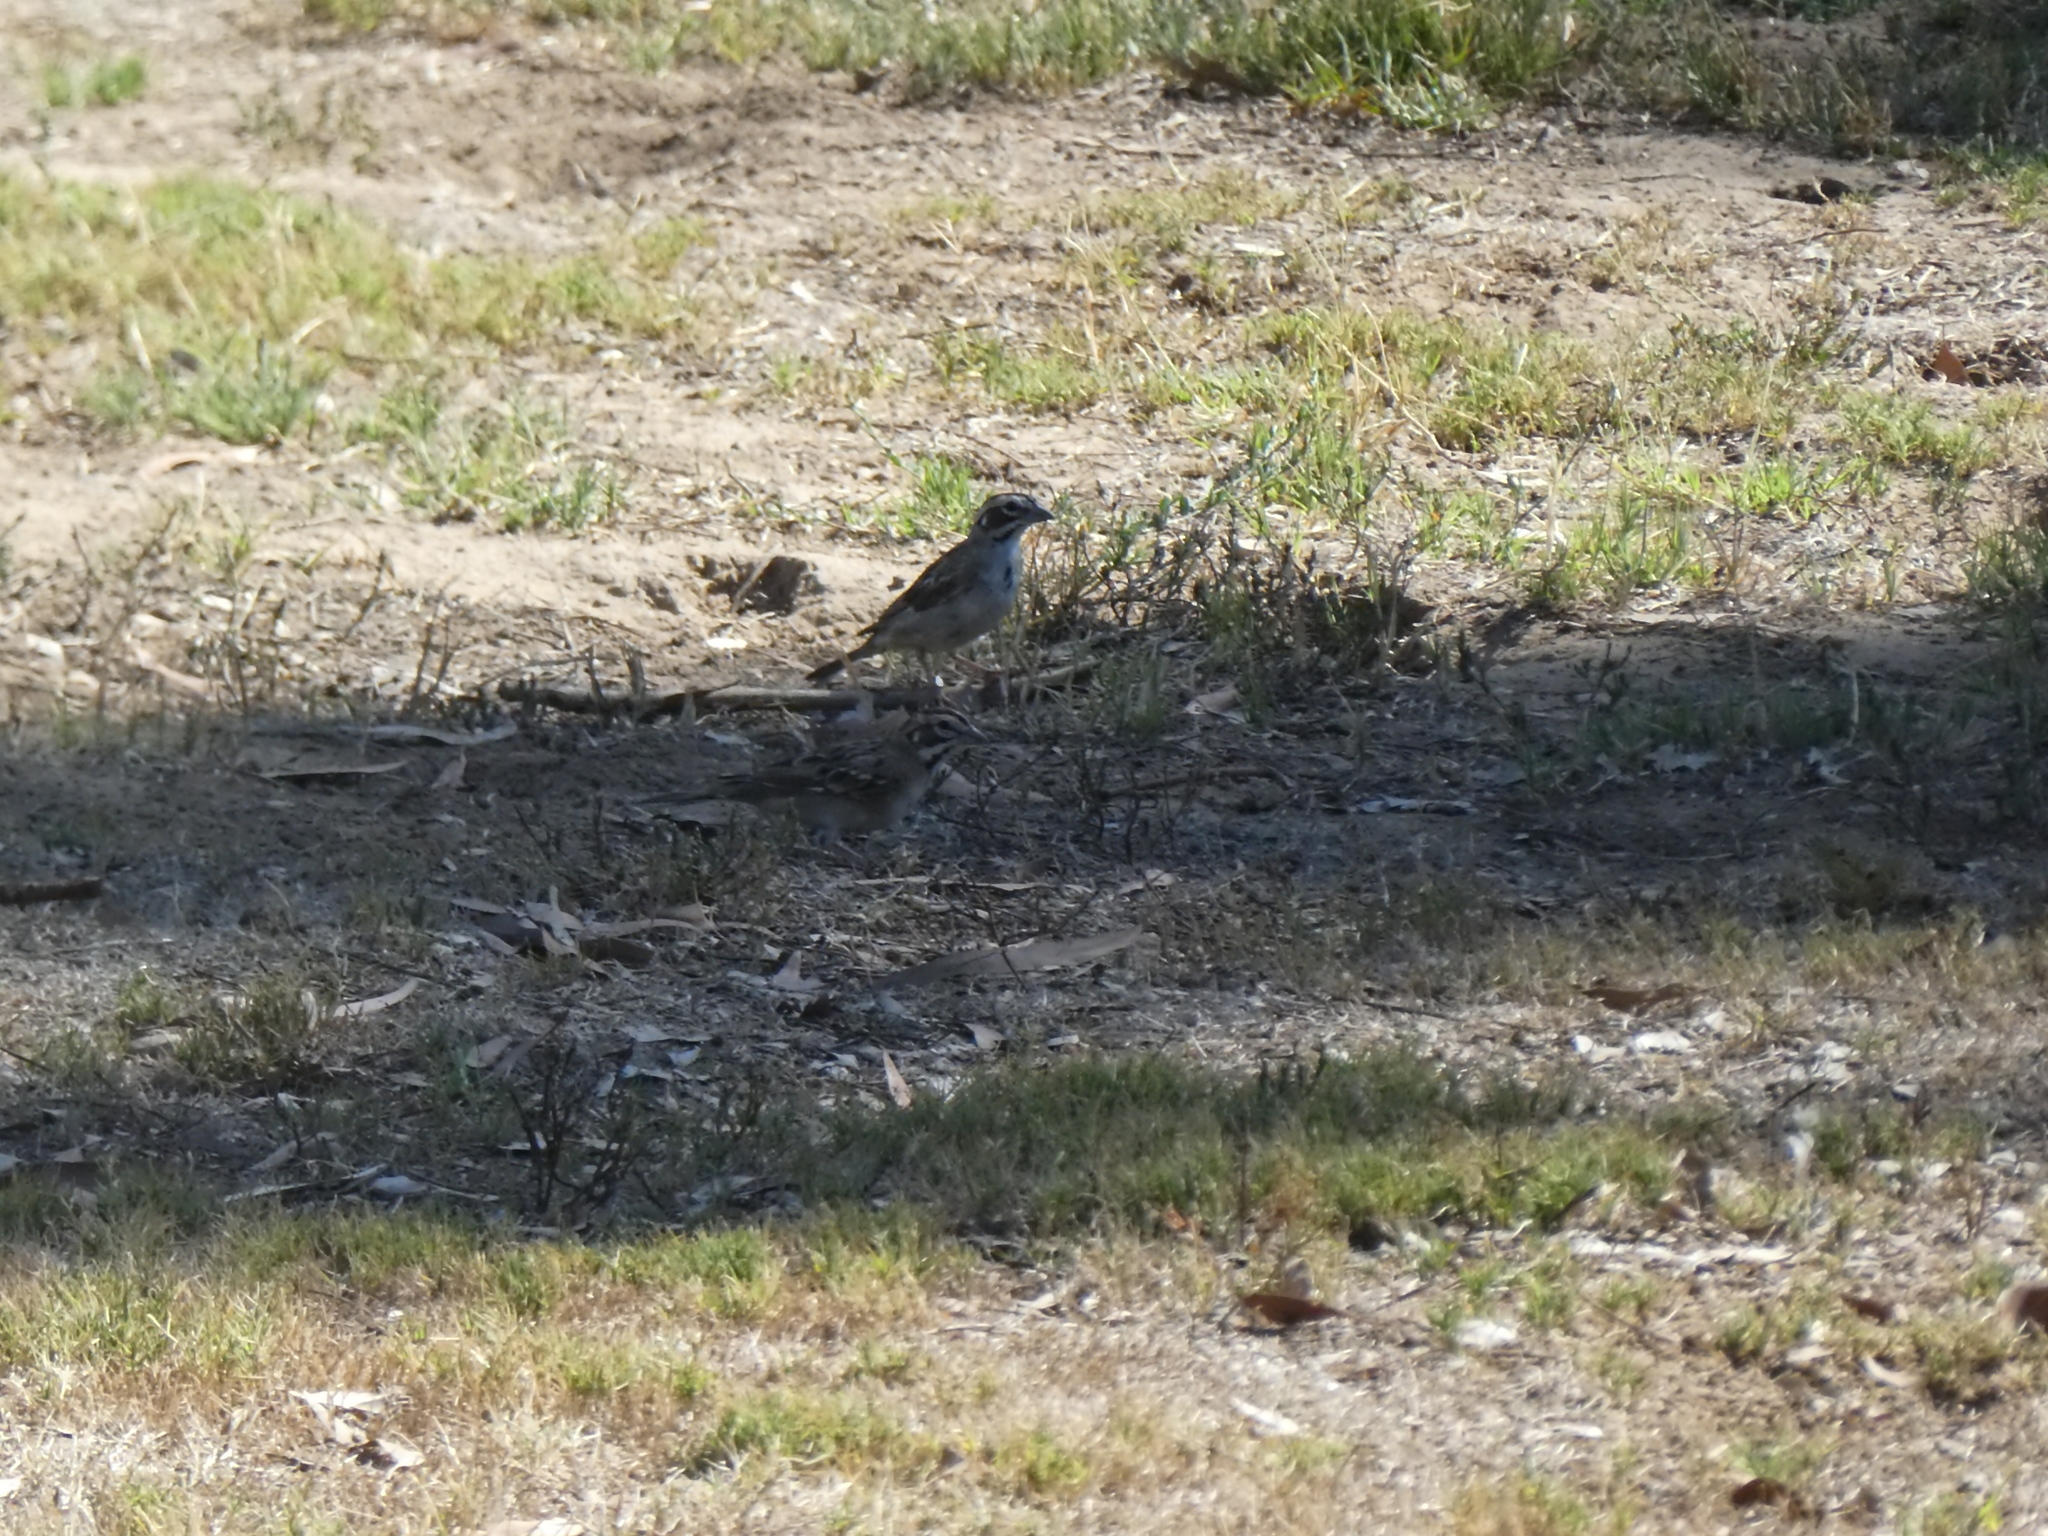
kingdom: Animalia
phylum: Chordata
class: Aves
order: Passeriformes
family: Passerellidae
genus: Chondestes
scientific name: Chondestes grammacus
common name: Lark sparrow
